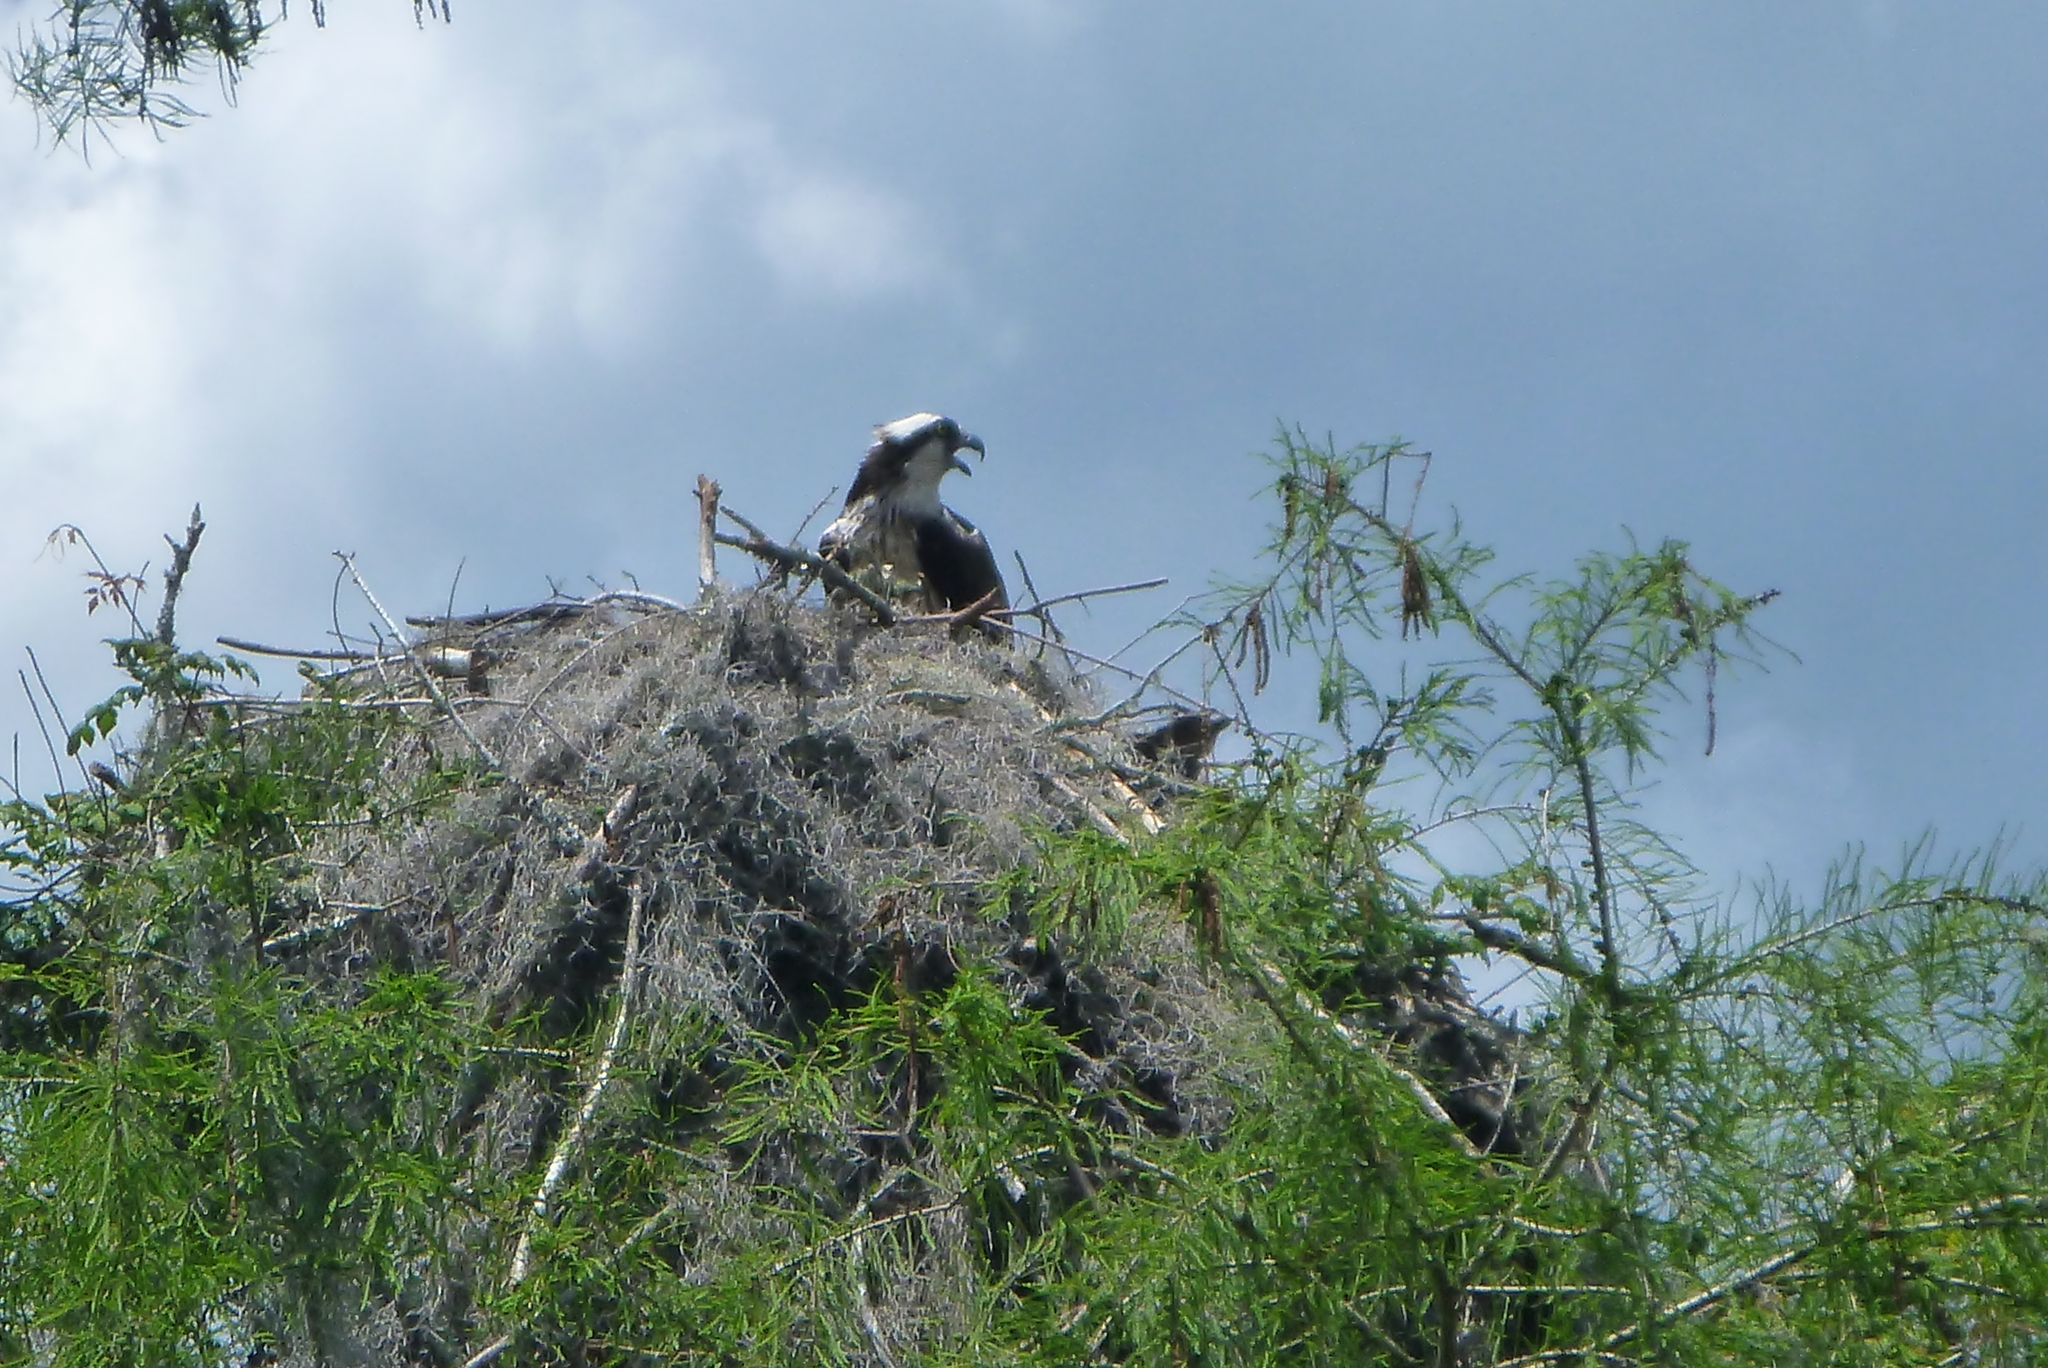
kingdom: Animalia
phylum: Chordata
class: Aves
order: Accipitriformes
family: Pandionidae
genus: Pandion
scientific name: Pandion haliaetus
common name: Osprey
